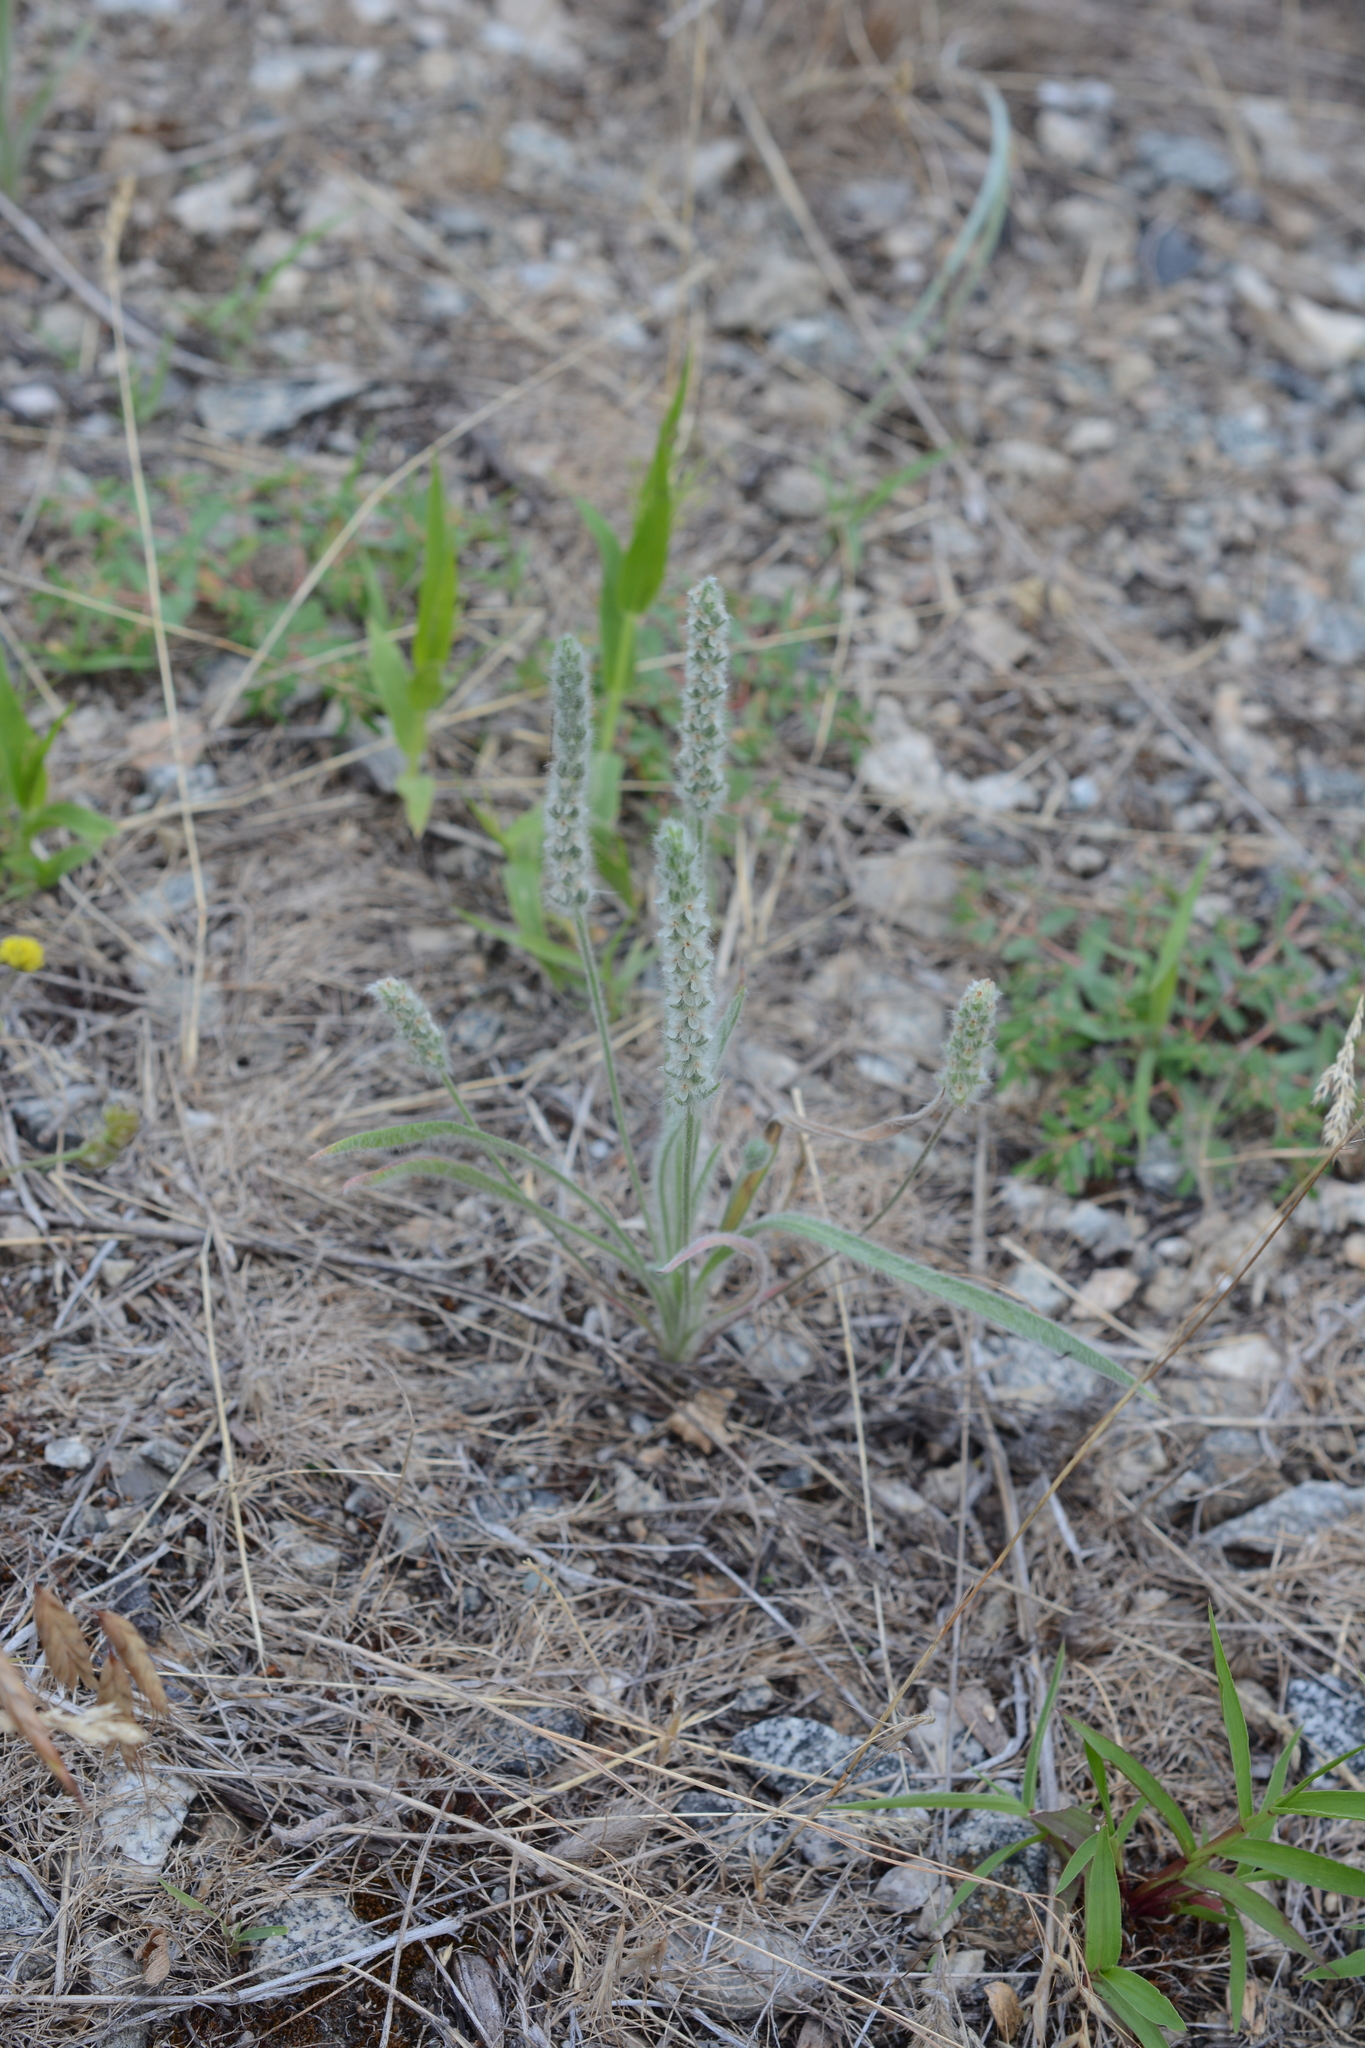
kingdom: Plantae
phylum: Tracheophyta
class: Magnoliopsida
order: Lamiales
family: Plantaginaceae
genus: Plantago
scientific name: Plantago patagonica
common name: Patagonia indian-wheat
